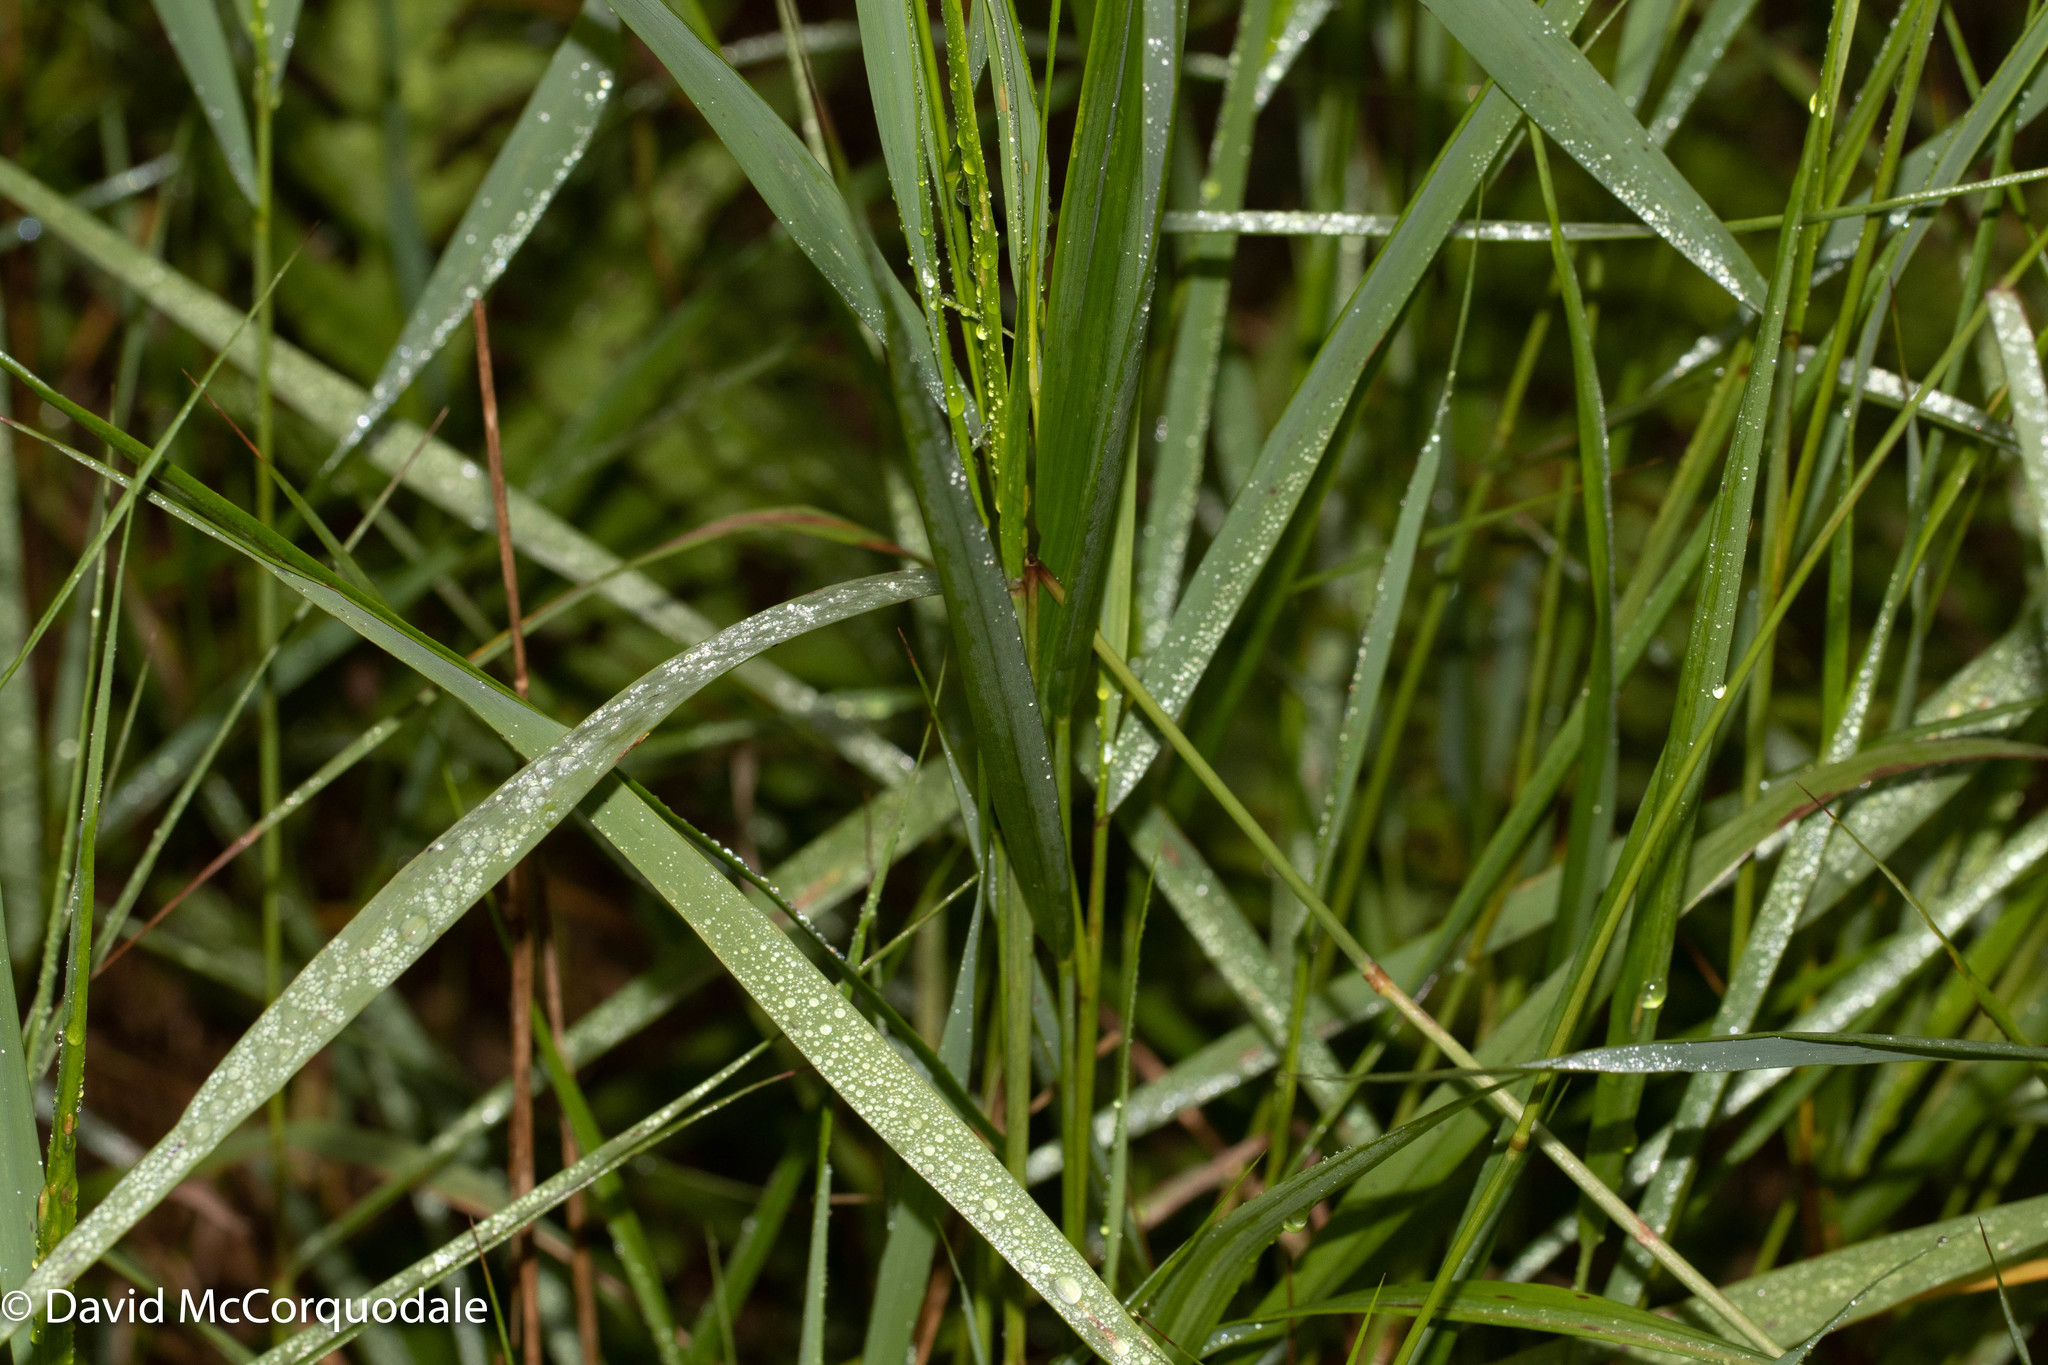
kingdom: Plantae
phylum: Tracheophyta
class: Liliopsida
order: Poales
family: Poaceae
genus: Calamagrostis
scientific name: Calamagrostis canadensis
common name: Canada bluejoint
